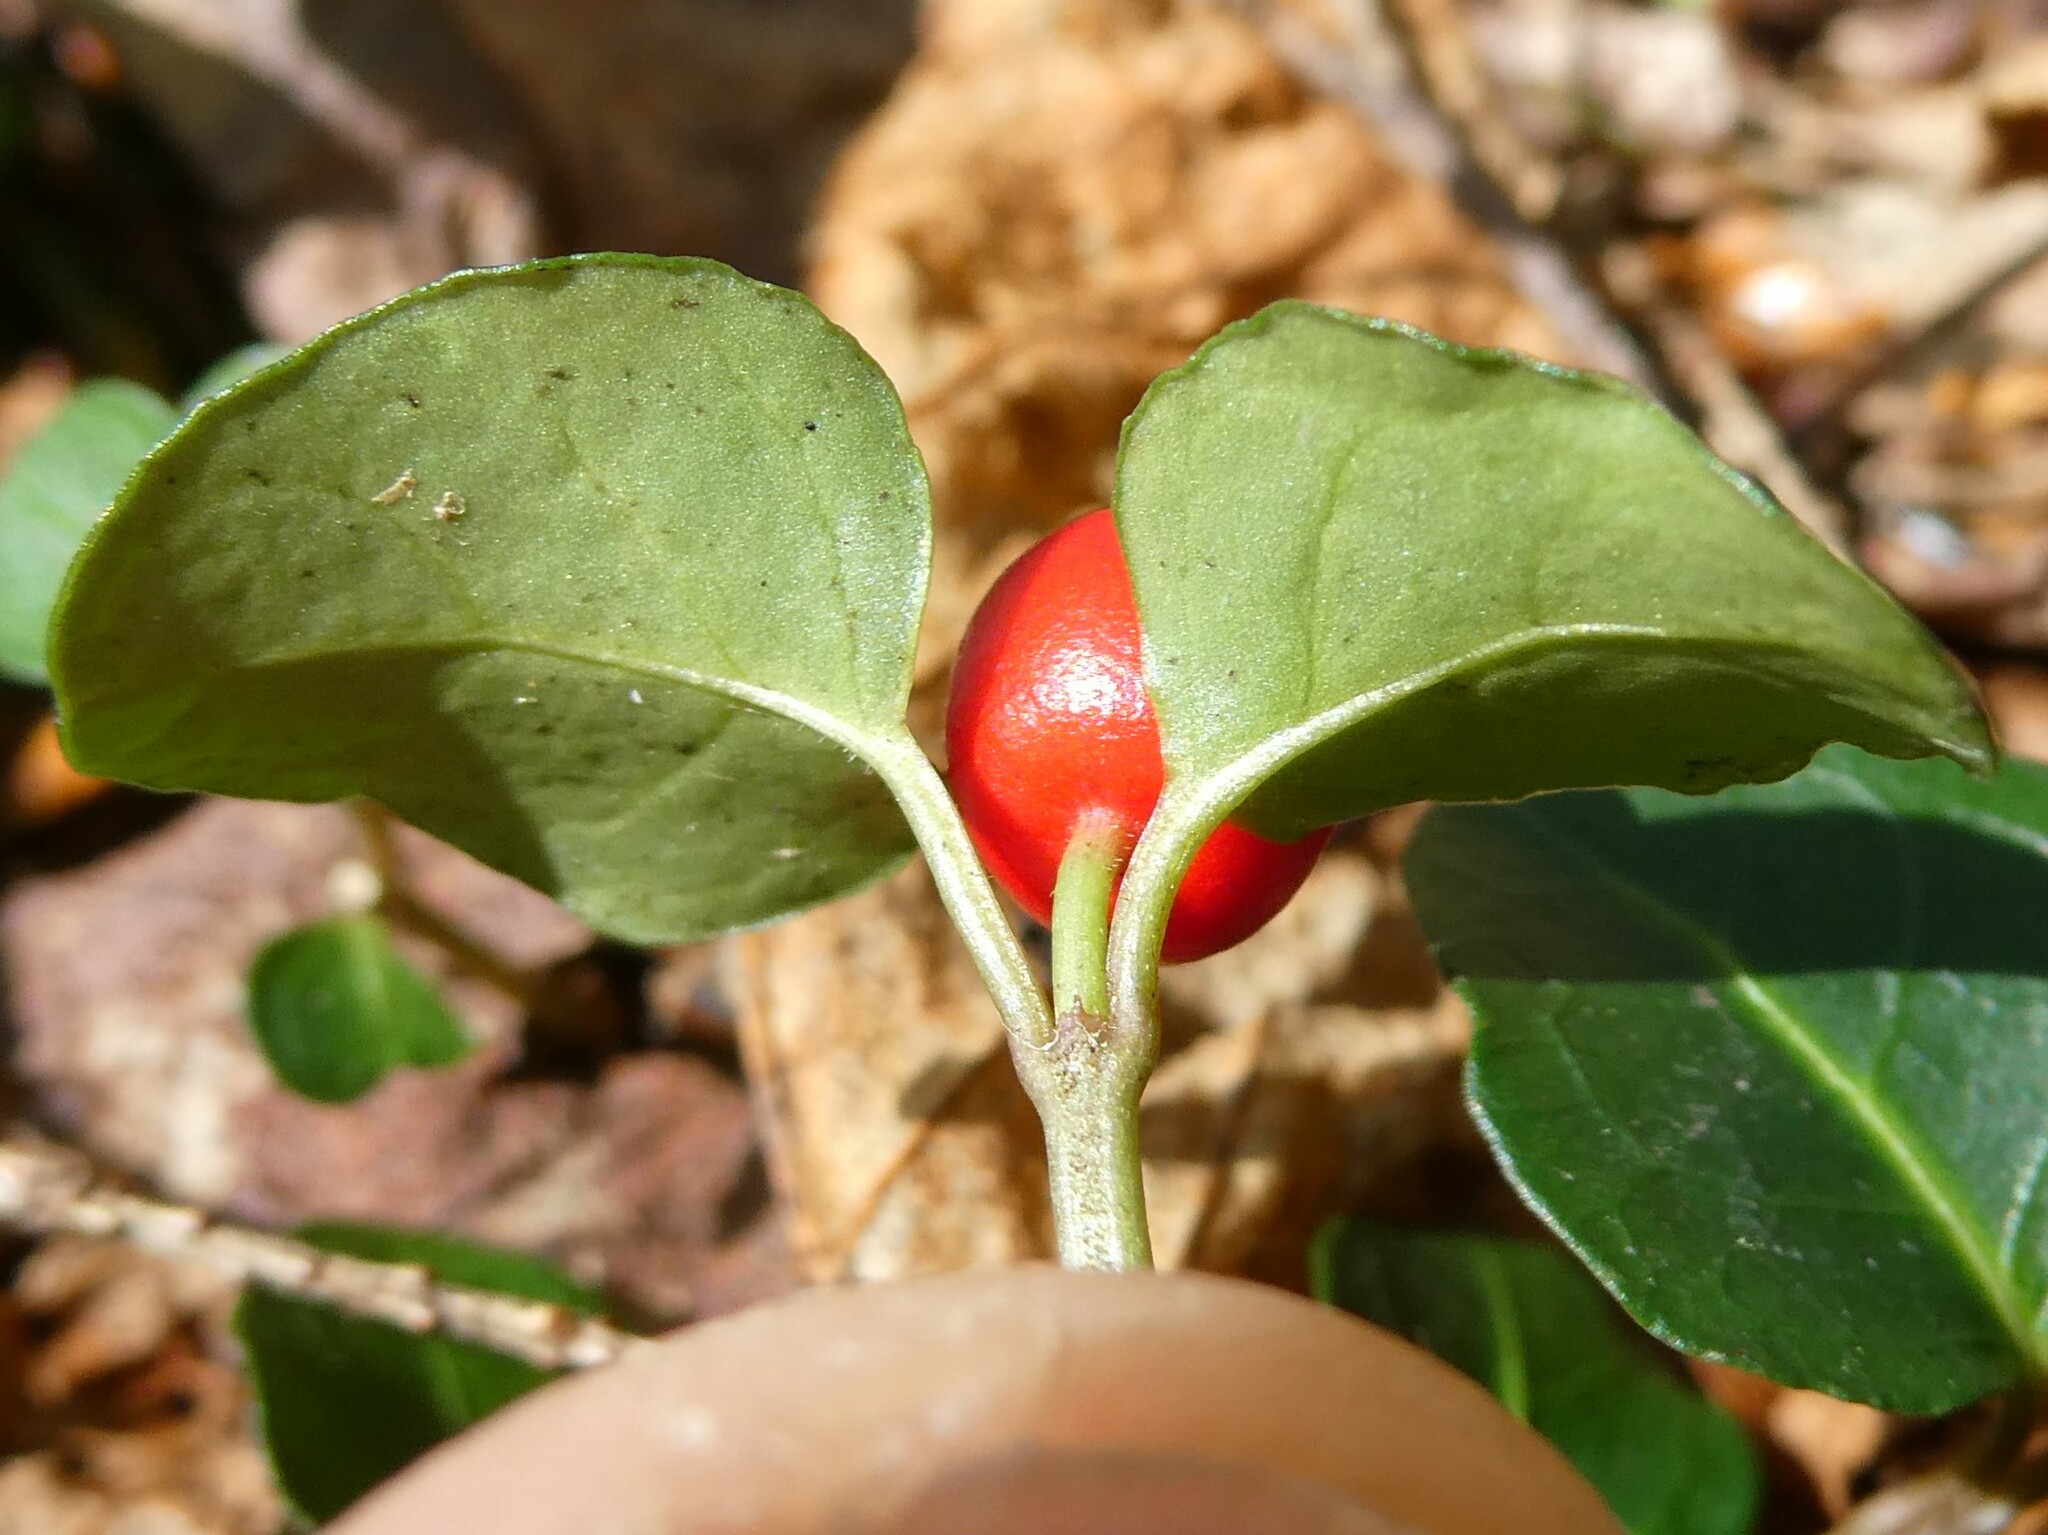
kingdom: Plantae
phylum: Tracheophyta
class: Magnoliopsida
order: Gentianales
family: Rubiaceae
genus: Mitchella
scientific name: Mitchella repens
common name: Partridge-berry
